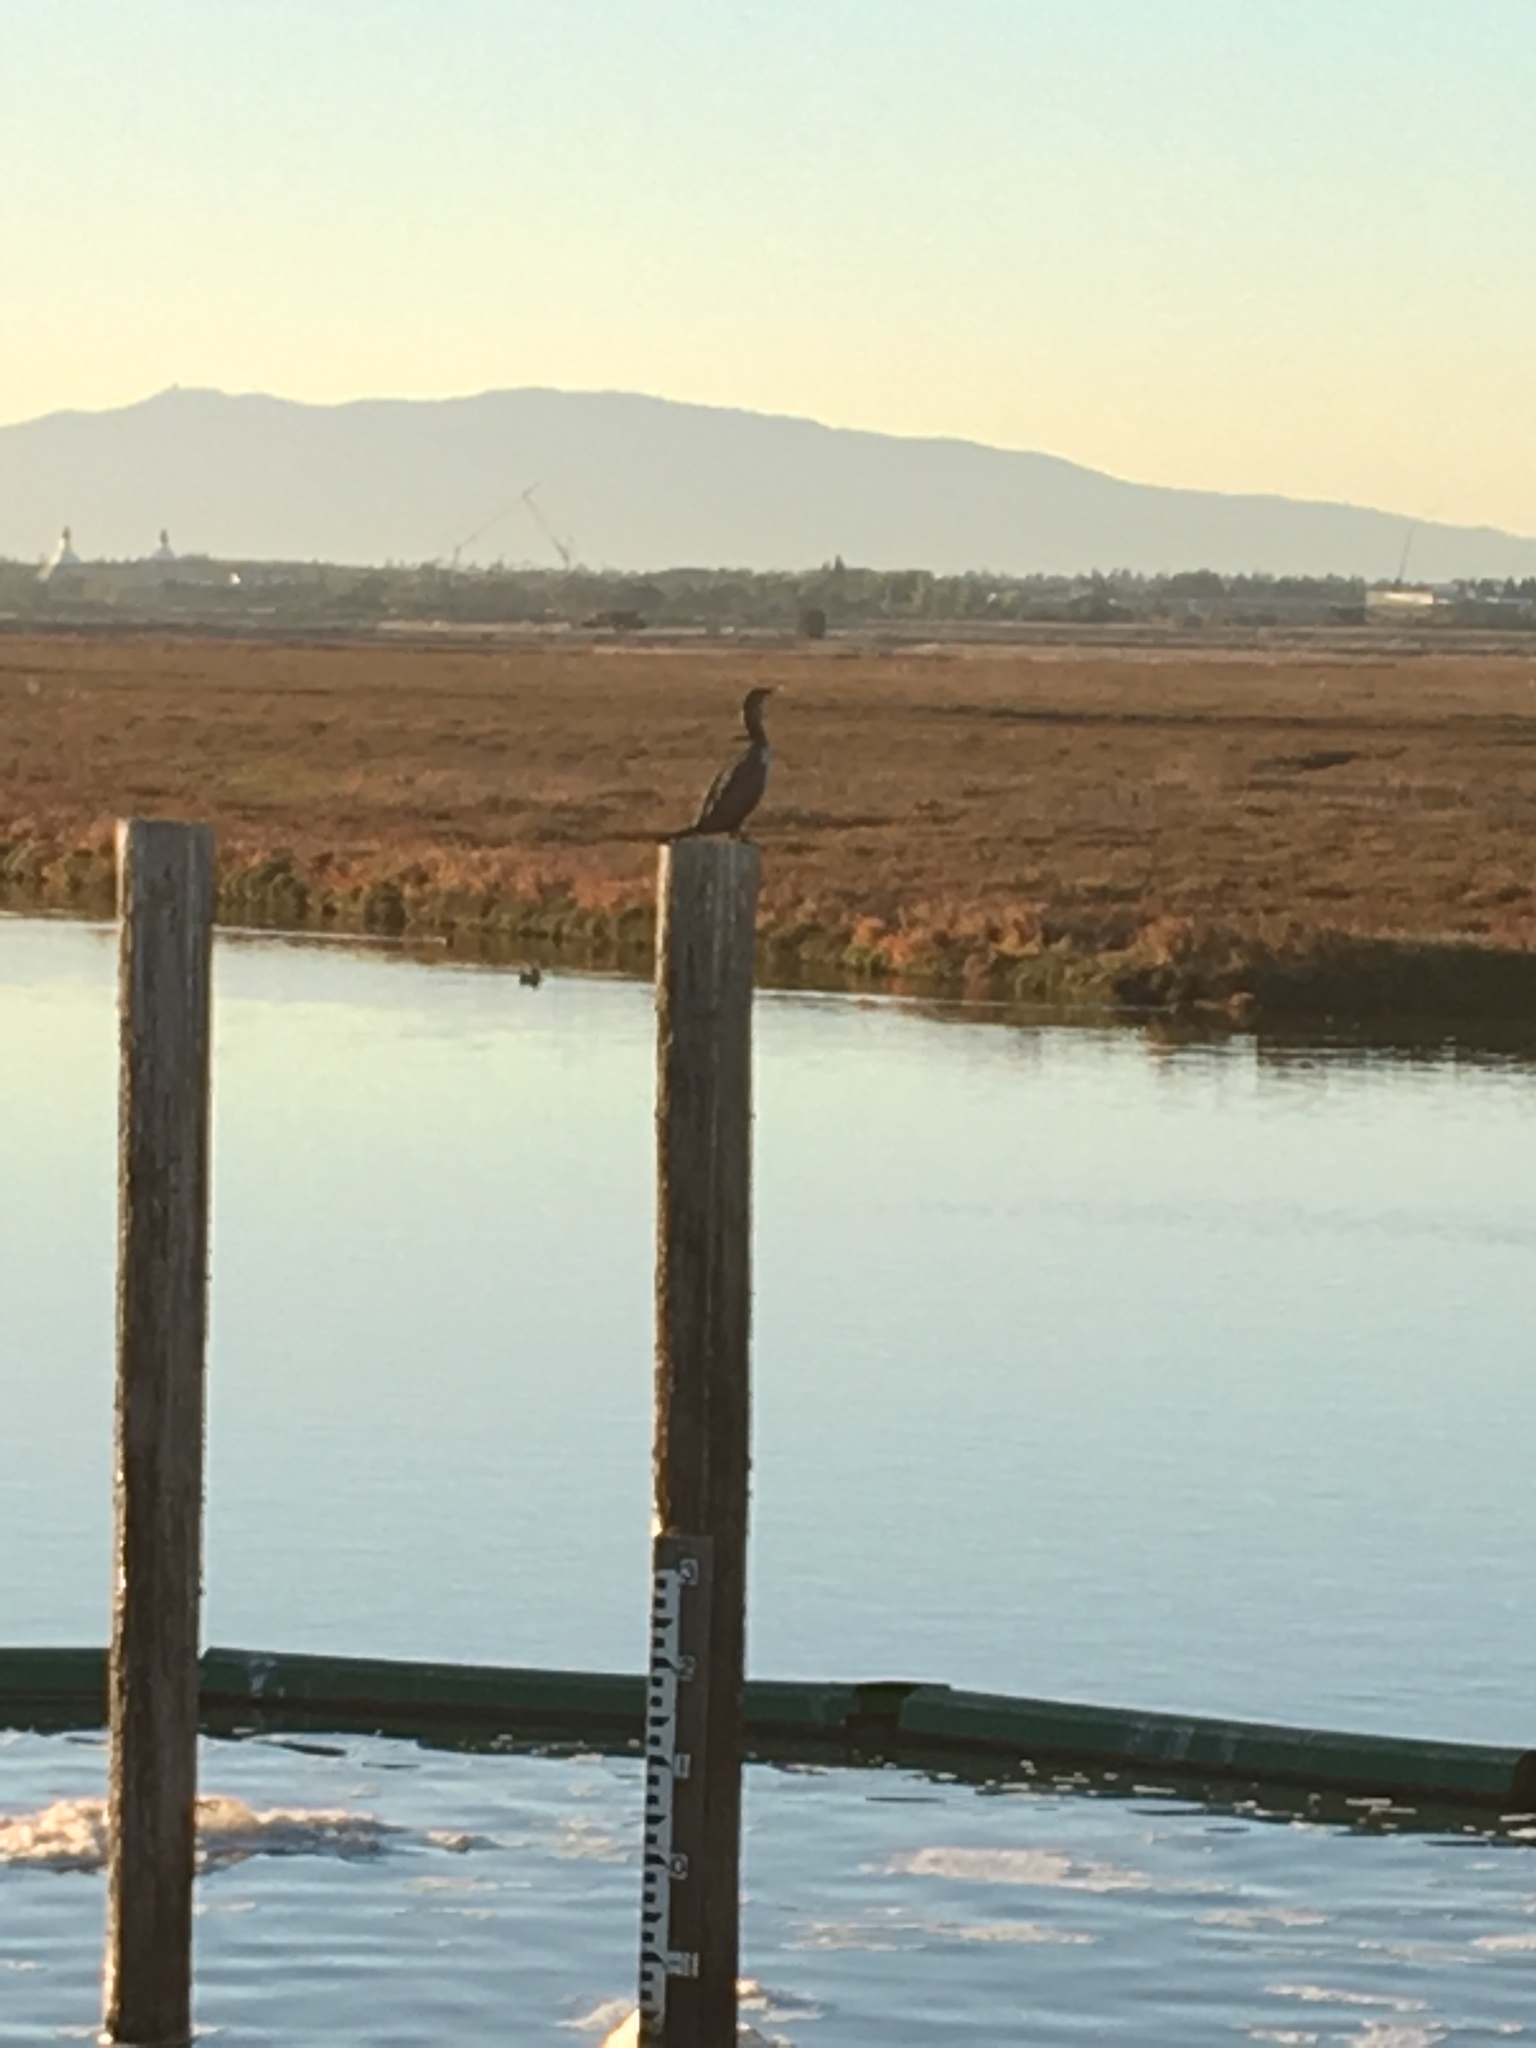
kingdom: Animalia
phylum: Chordata
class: Aves
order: Suliformes
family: Phalacrocoracidae
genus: Phalacrocorax
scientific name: Phalacrocorax auritus
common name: Double-crested cormorant
